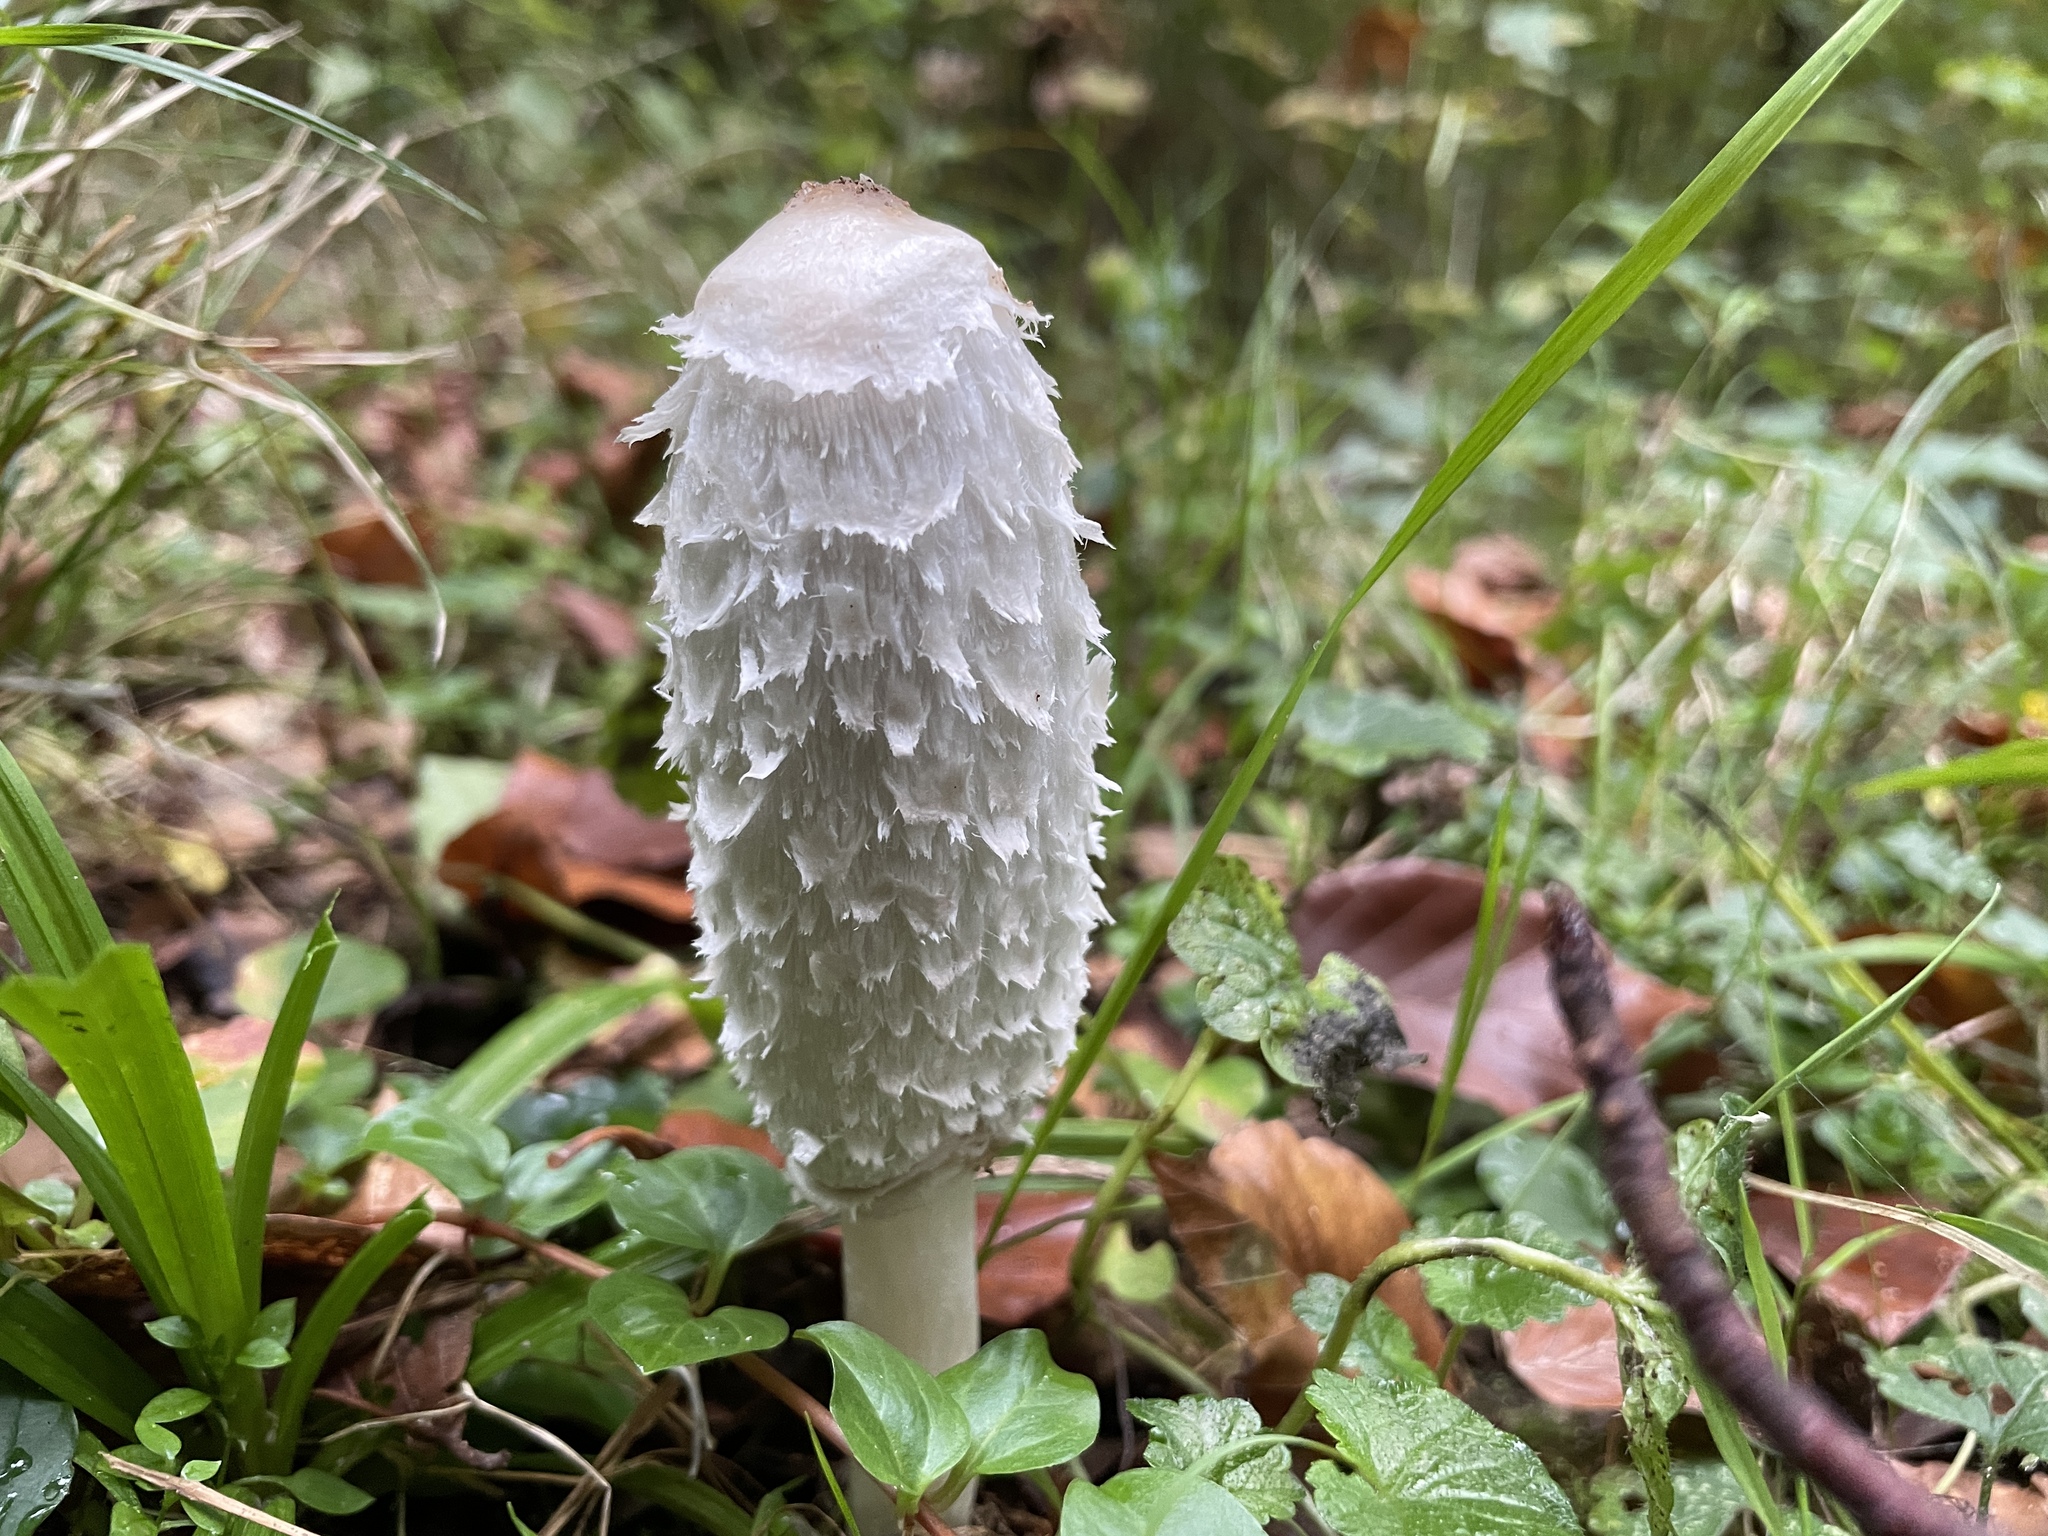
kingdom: Fungi
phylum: Basidiomycota
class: Agaricomycetes
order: Agaricales
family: Agaricaceae
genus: Coprinus
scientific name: Coprinus comatus
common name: Lawyer's wig
